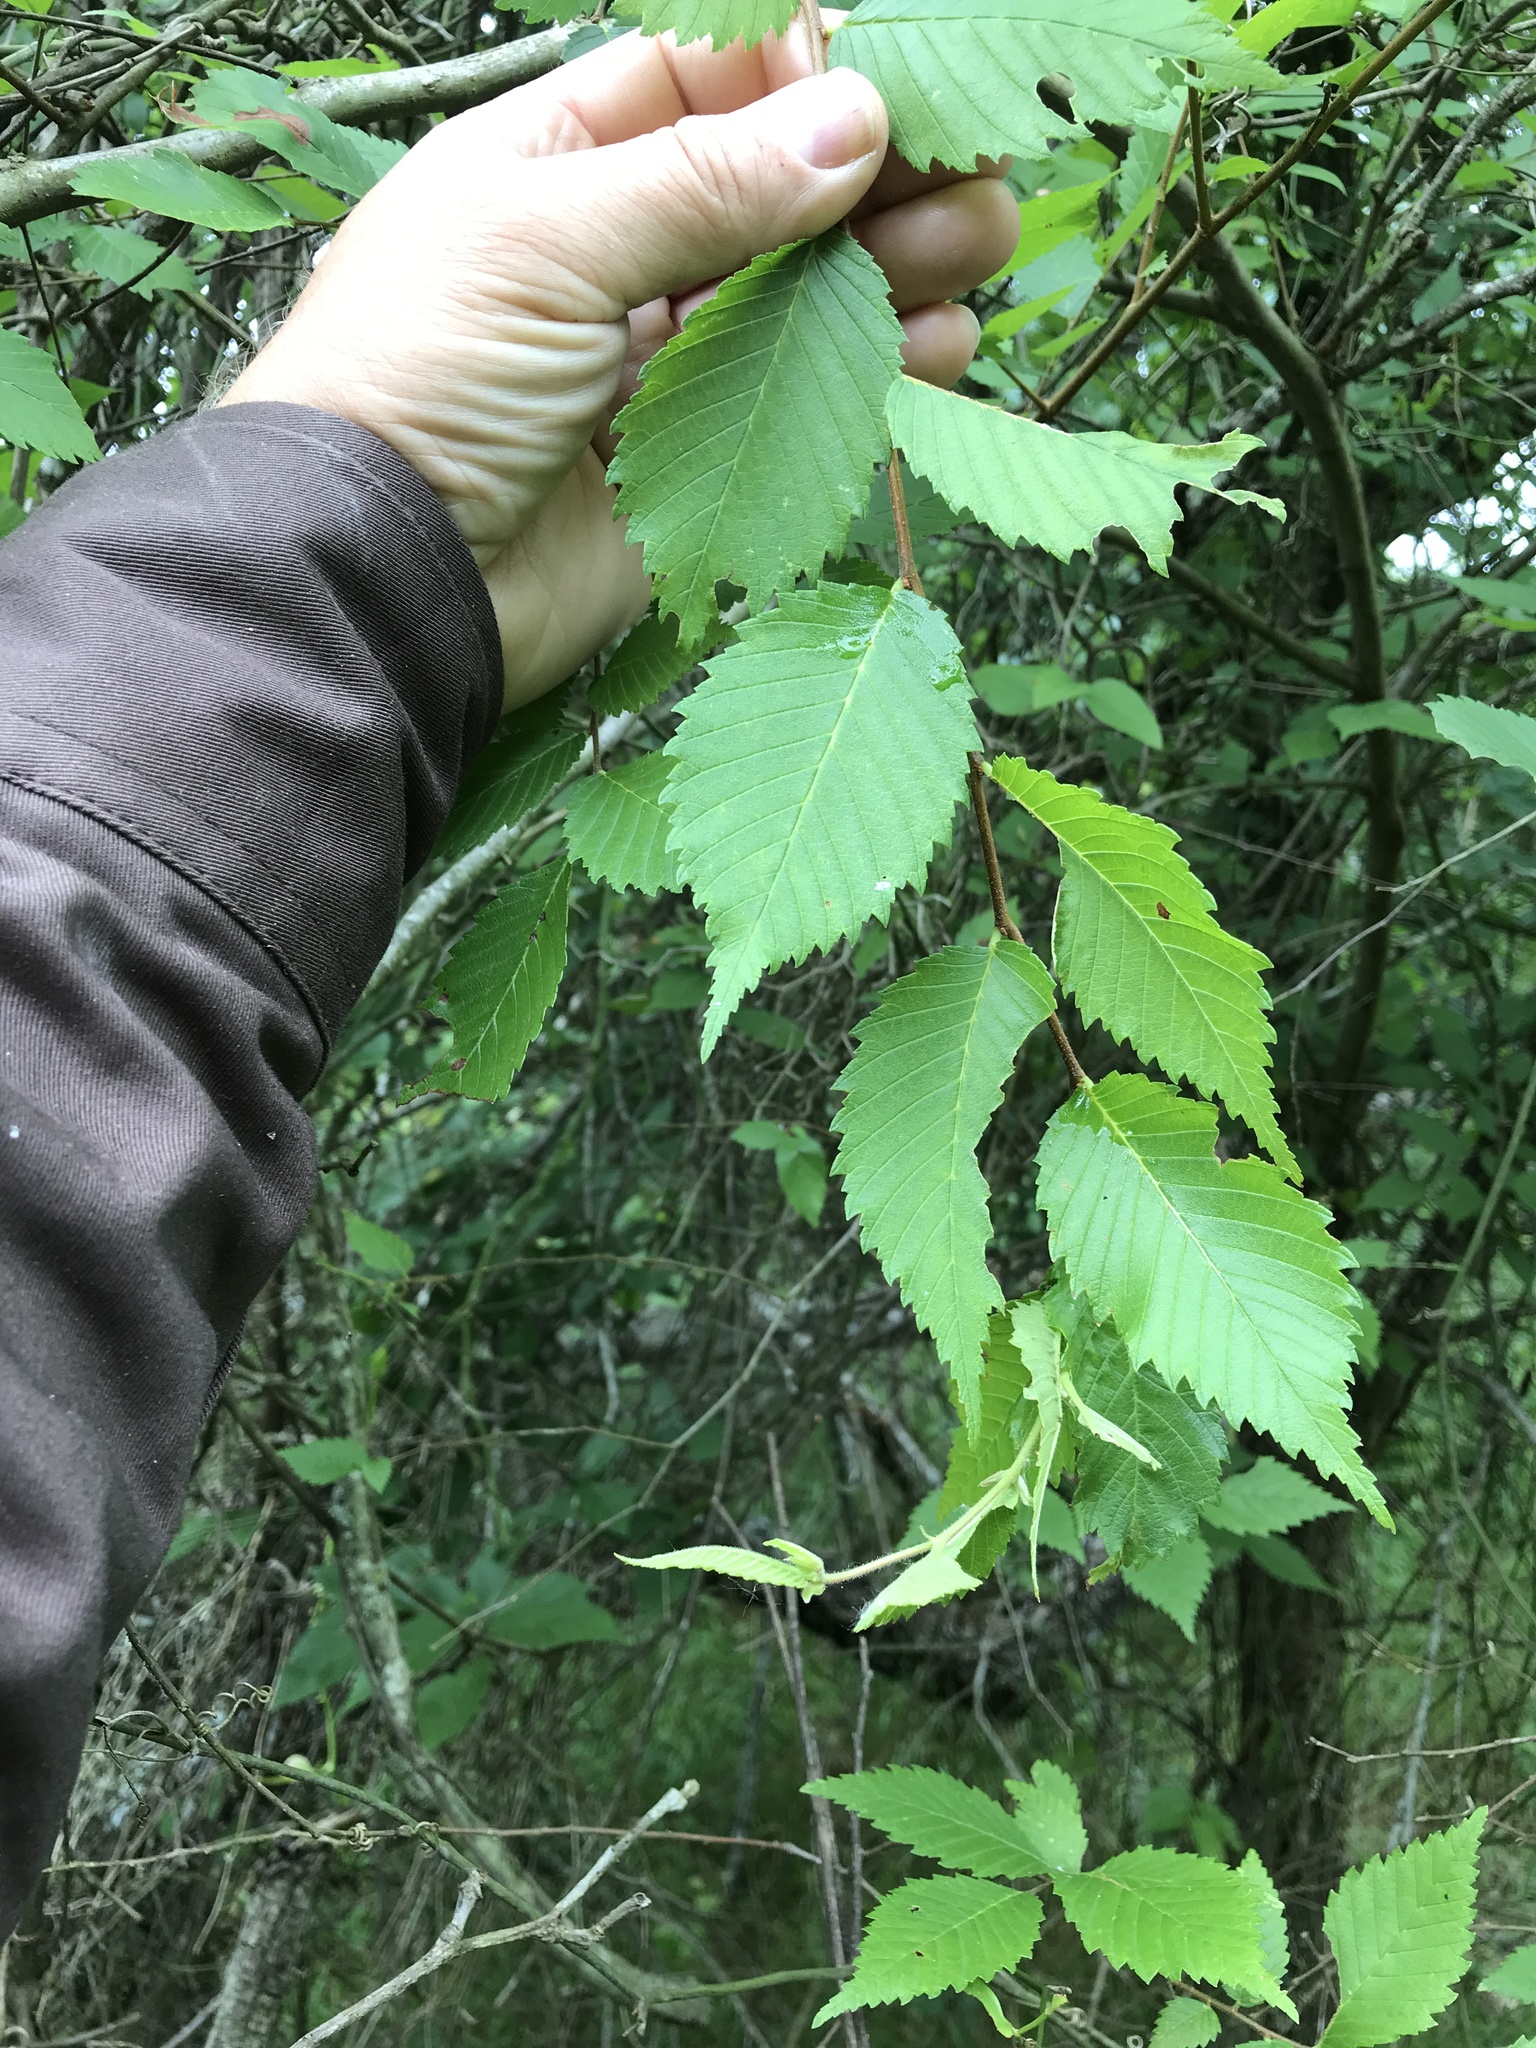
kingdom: Plantae
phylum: Tracheophyta
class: Magnoliopsida
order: Rosales
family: Ulmaceae
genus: Ulmus
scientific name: Ulmus americana
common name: American elm
